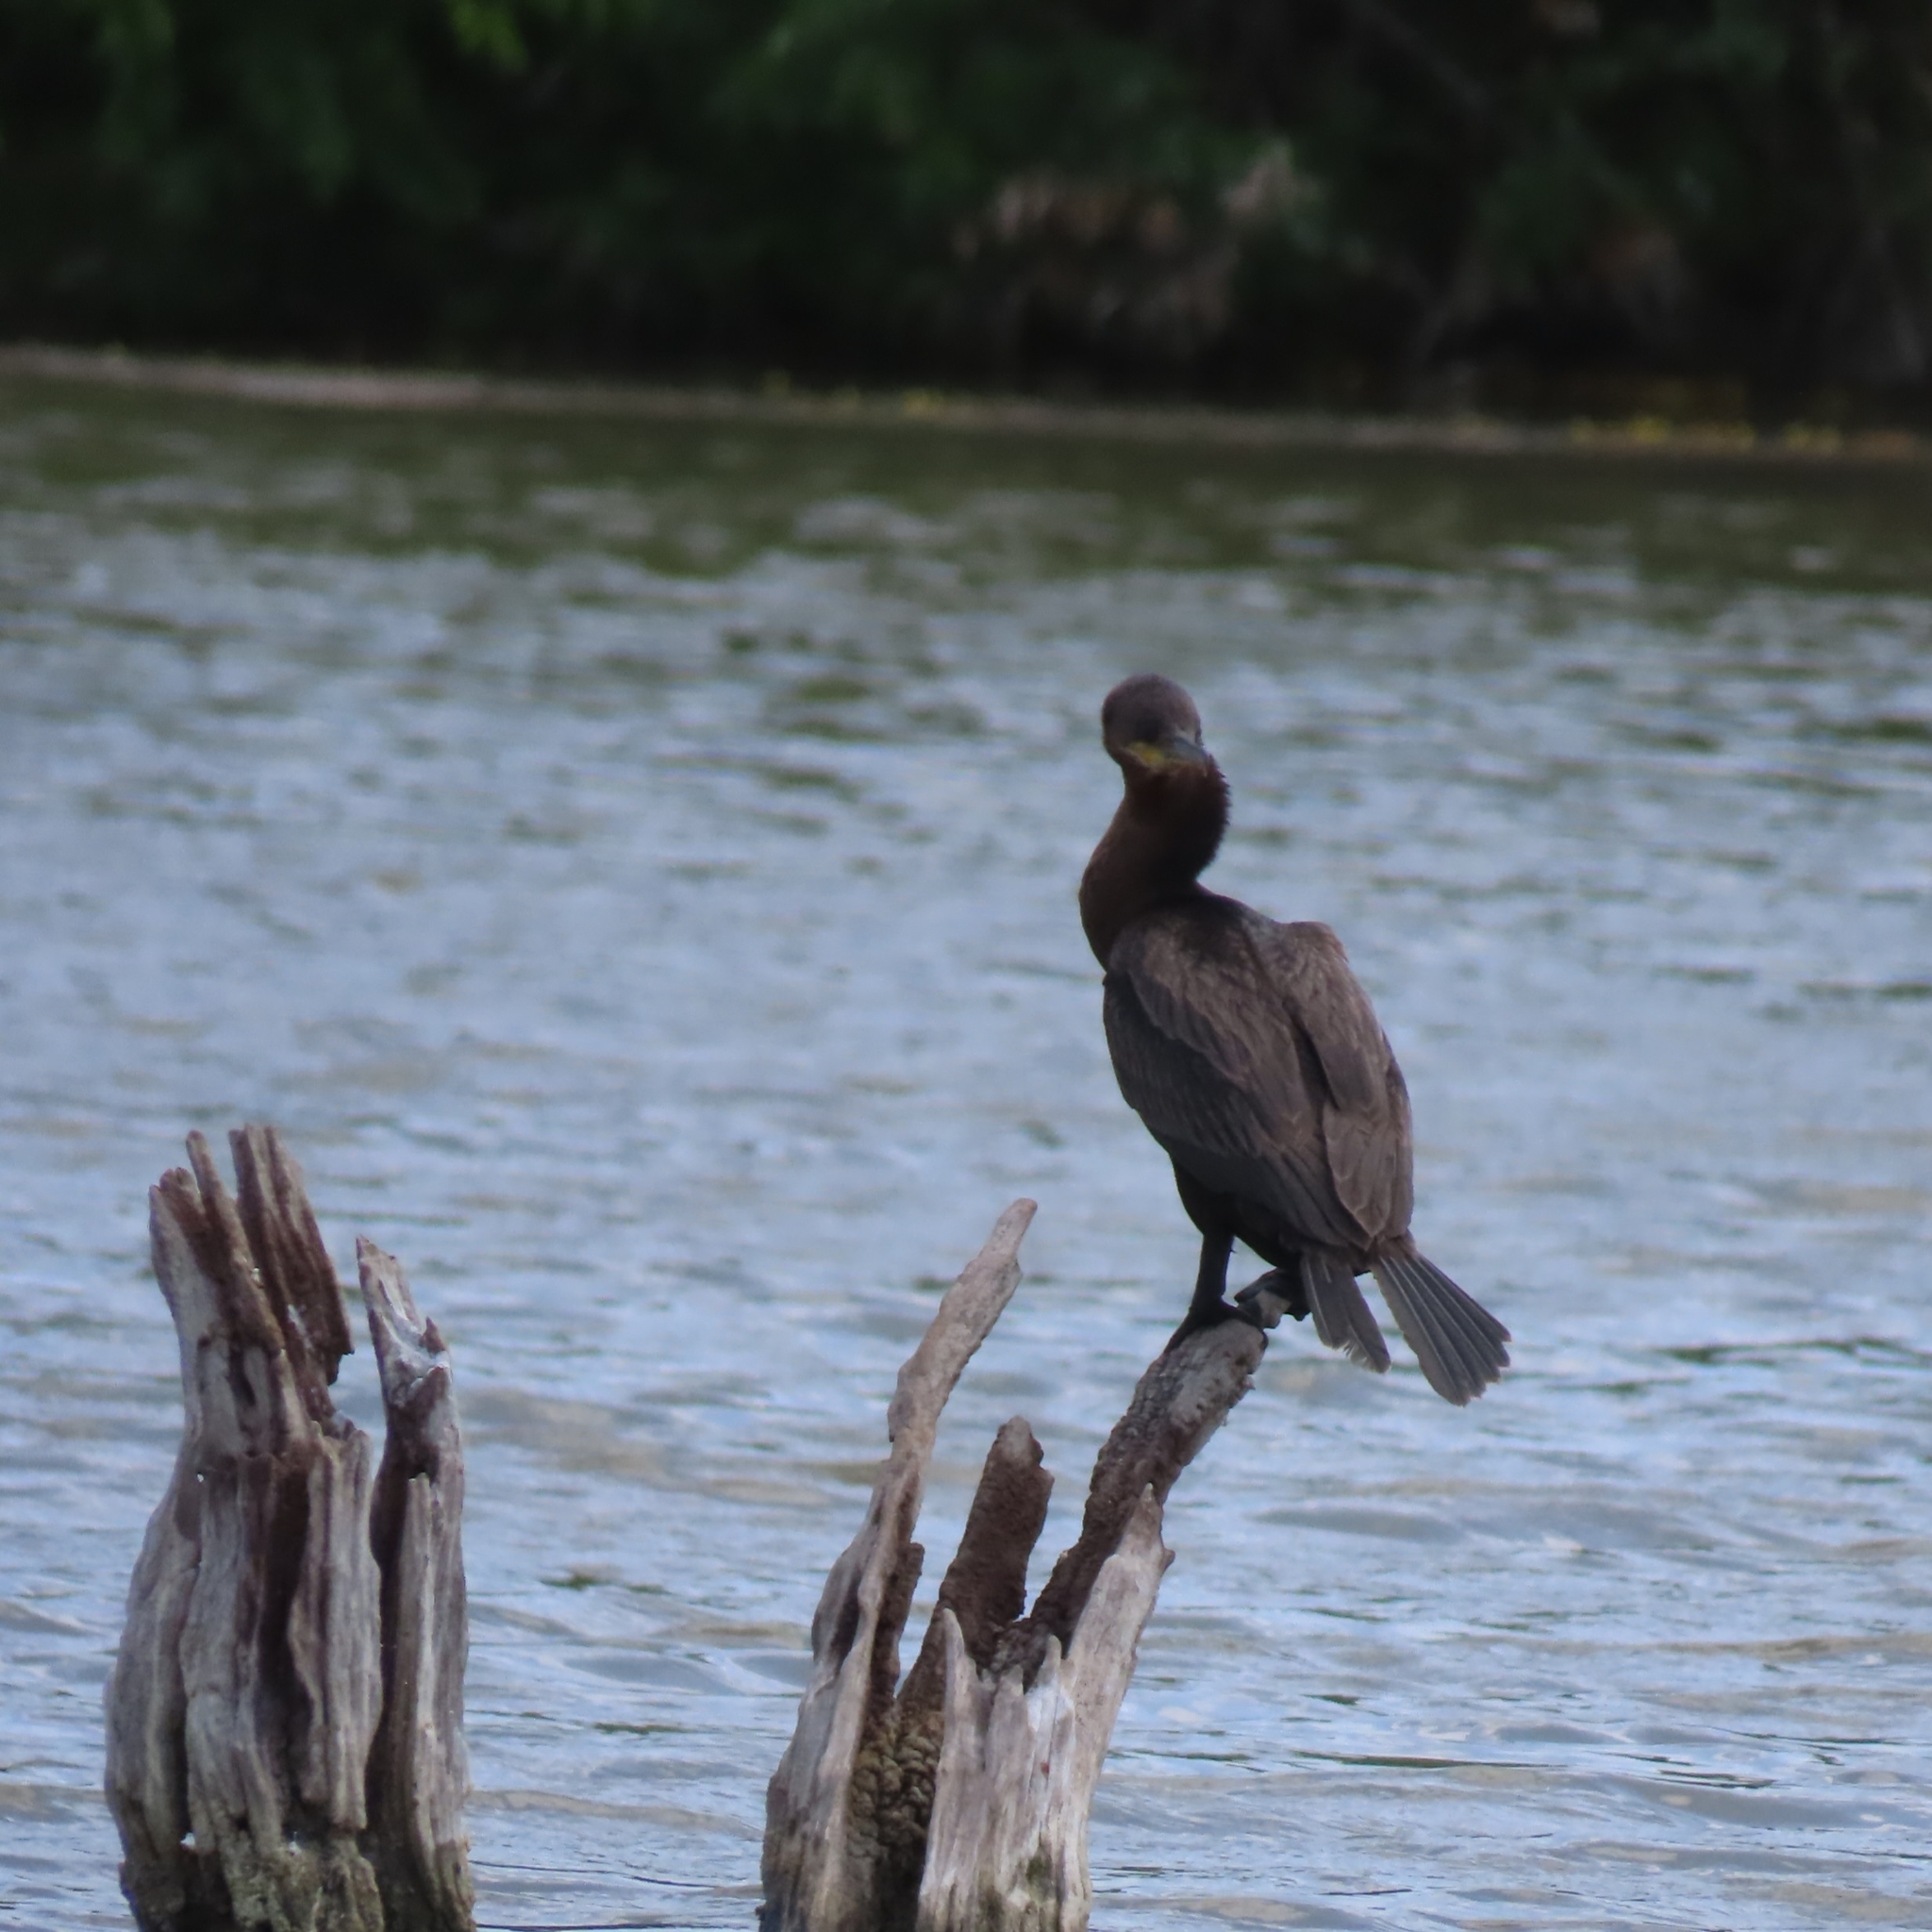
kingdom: Animalia
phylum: Chordata
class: Aves
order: Suliformes
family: Phalacrocoracidae
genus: Phalacrocorax
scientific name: Phalacrocorax brasilianus
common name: Neotropic cormorant
